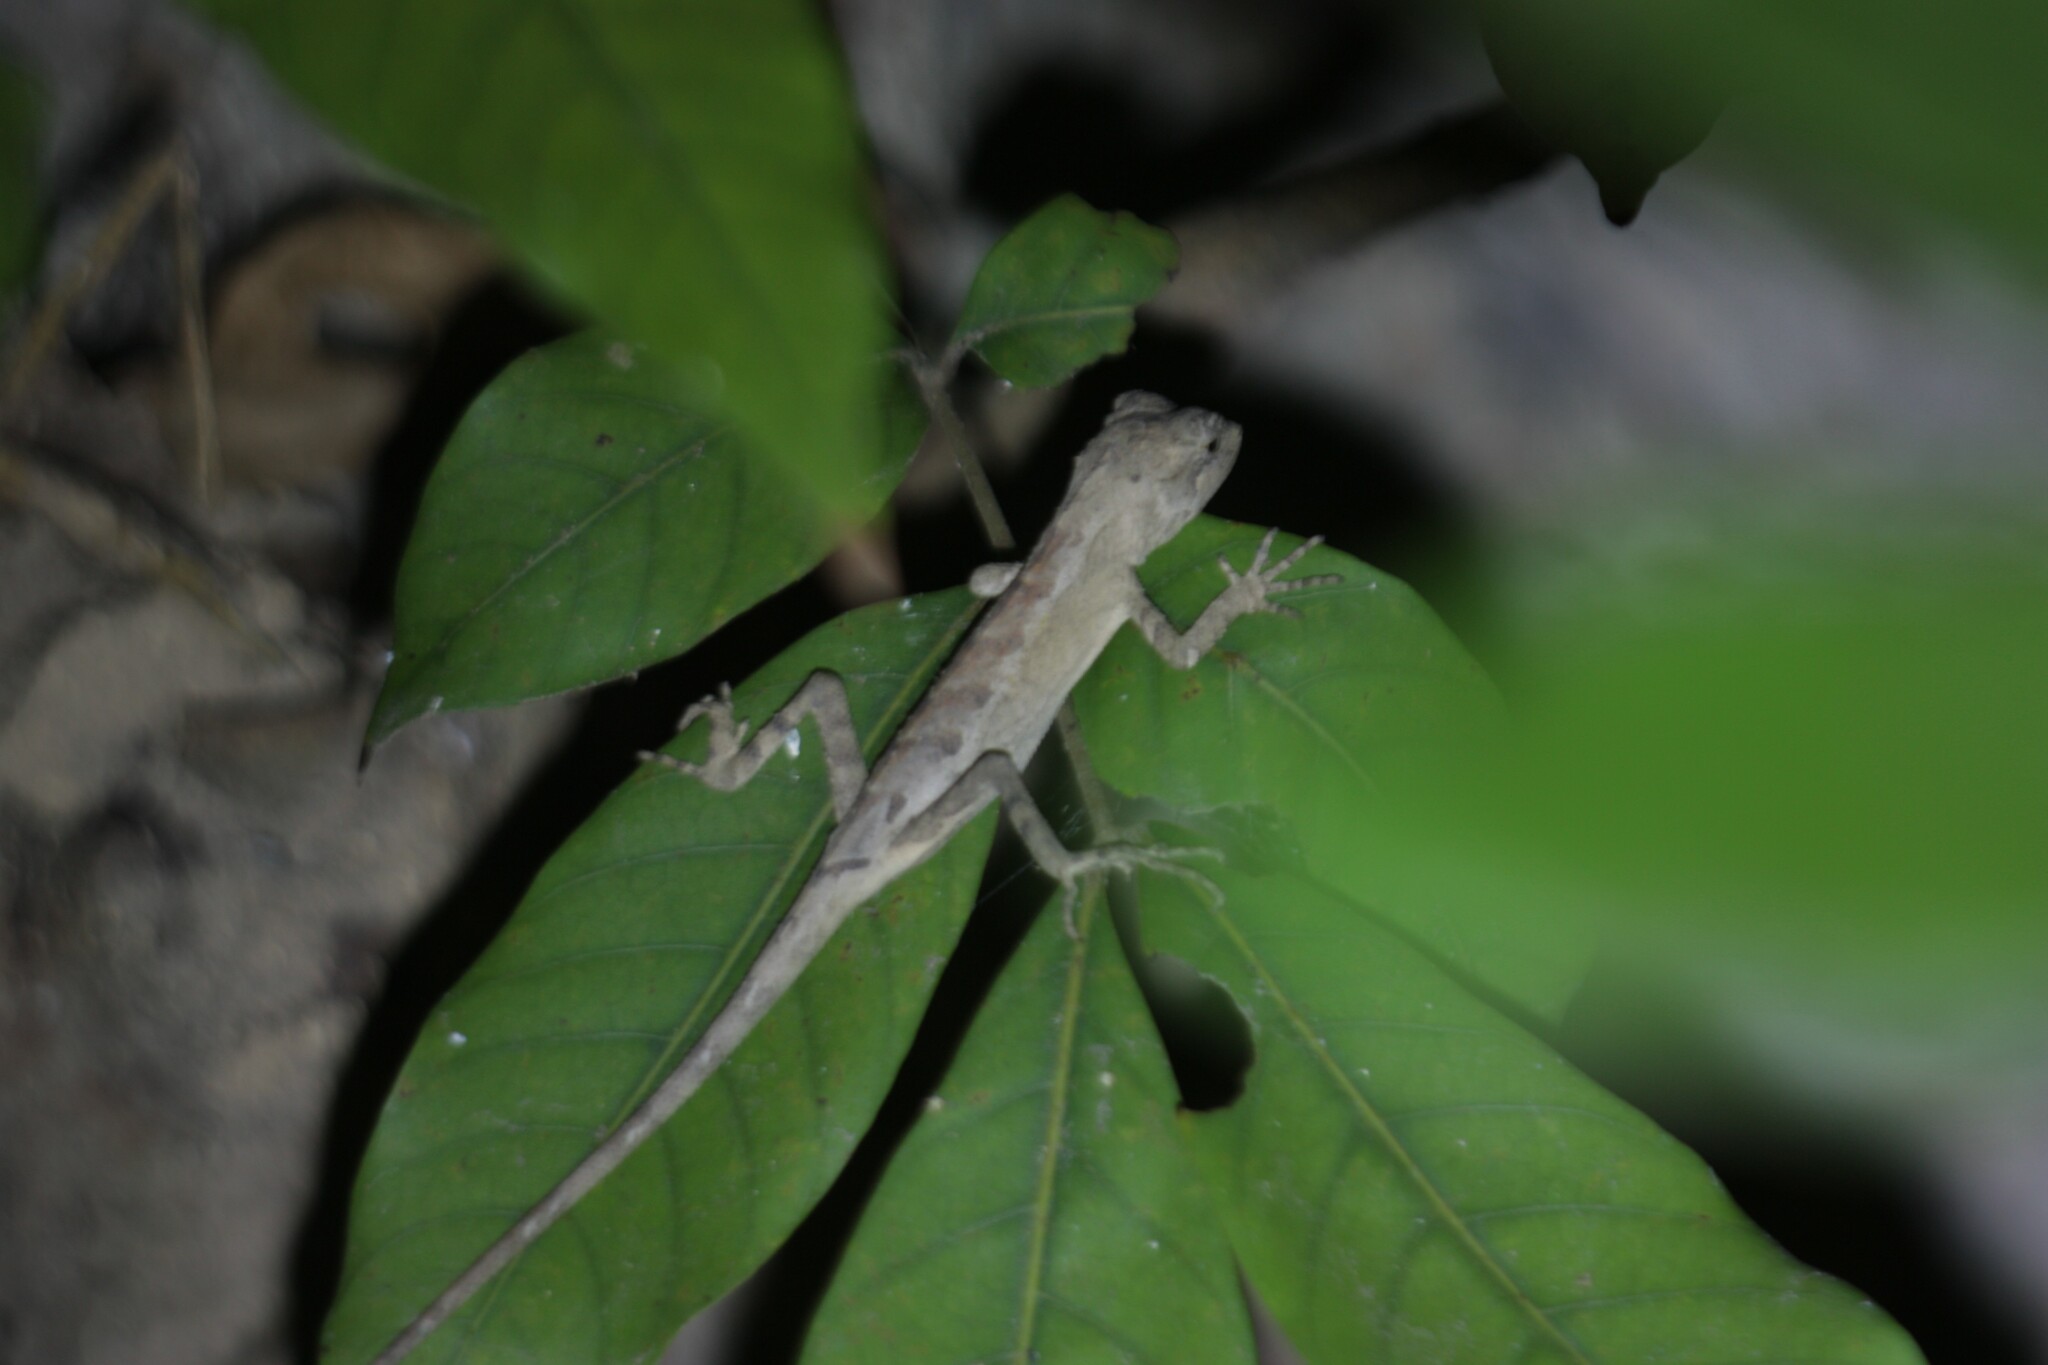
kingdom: Animalia
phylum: Chordata
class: Squamata
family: Agamidae
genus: Diploderma
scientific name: Diploderma swinhonis
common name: Taiwan japalure
